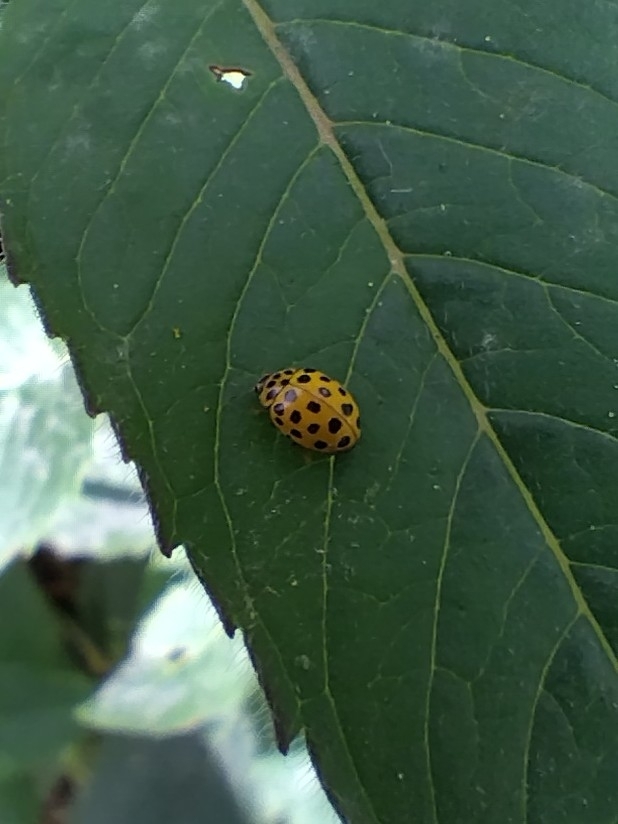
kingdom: Animalia
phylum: Arthropoda
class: Insecta
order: Coleoptera
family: Coccinellidae
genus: Psyllobora
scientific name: Psyllobora vigintiduopunctata
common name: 22-spot ladybird
